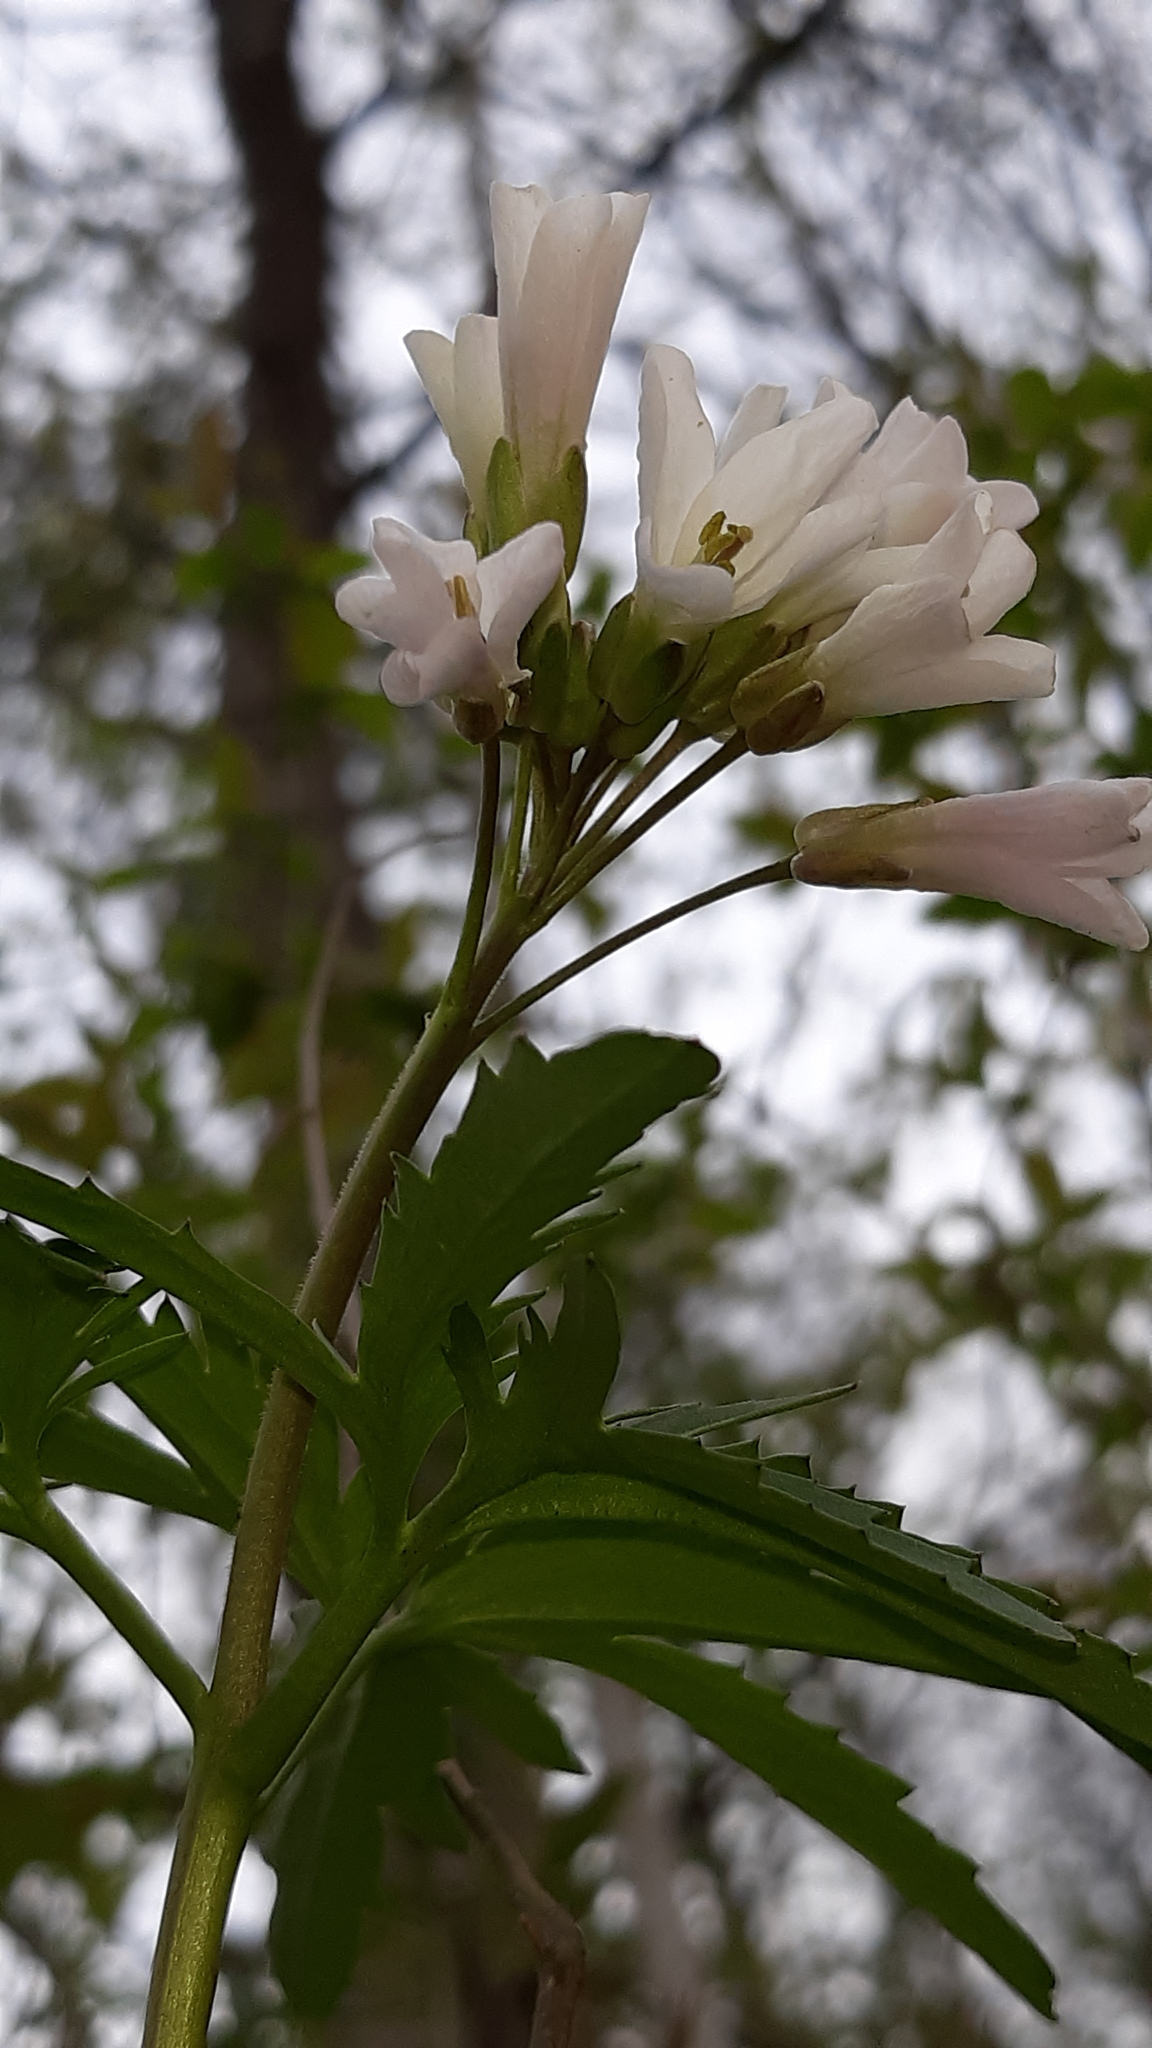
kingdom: Plantae
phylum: Tracheophyta
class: Magnoliopsida
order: Brassicales
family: Brassicaceae
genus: Cardamine
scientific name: Cardamine concatenata
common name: Cut-leaf toothcup
